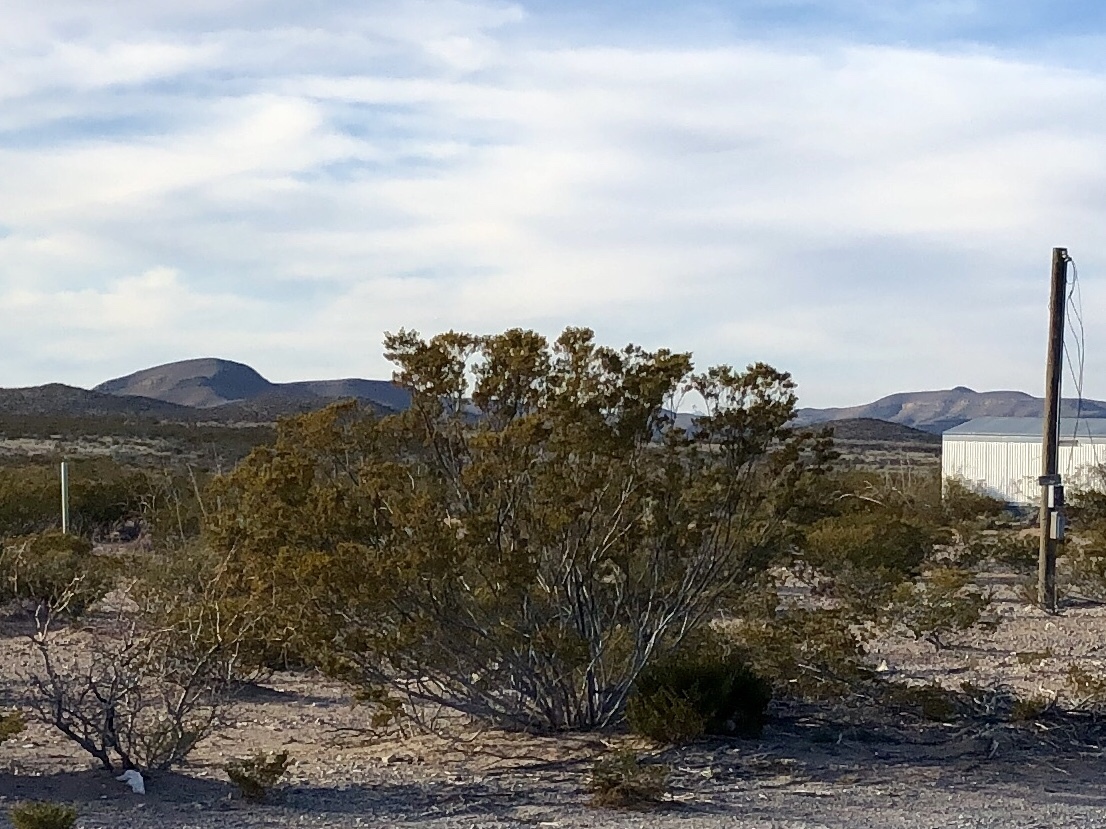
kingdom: Plantae
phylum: Tracheophyta
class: Magnoliopsida
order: Zygophyllales
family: Zygophyllaceae
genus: Larrea
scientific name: Larrea tridentata
